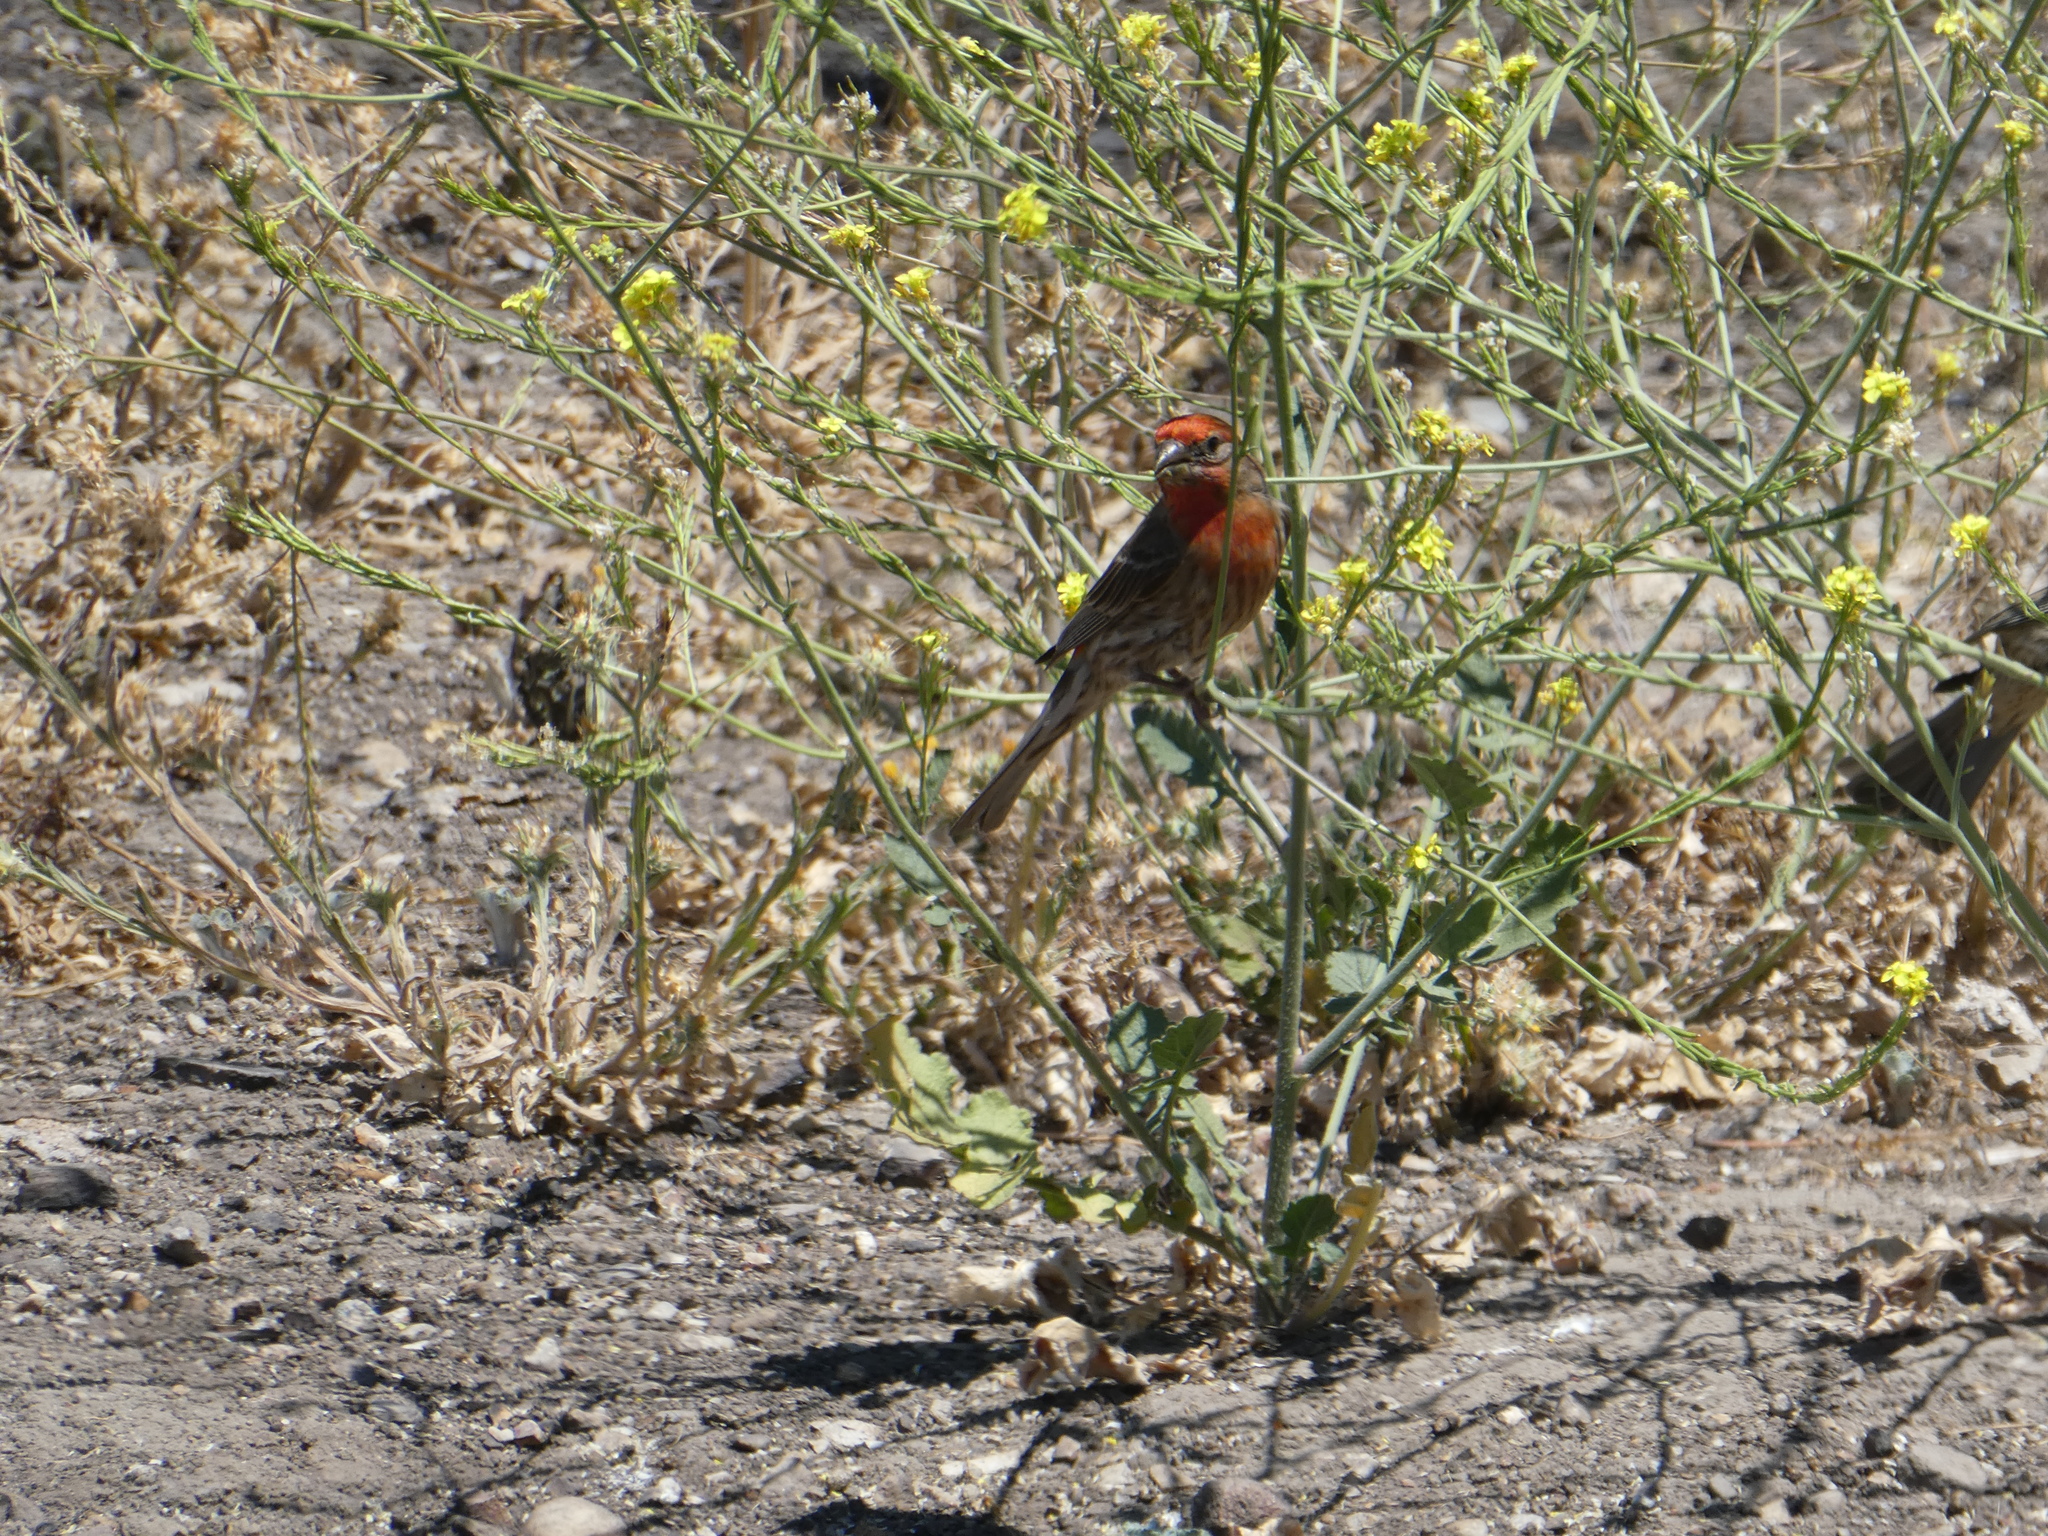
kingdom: Animalia
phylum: Chordata
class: Aves
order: Passeriformes
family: Fringillidae
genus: Haemorhous
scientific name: Haemorhous mexicanus
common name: House finch
